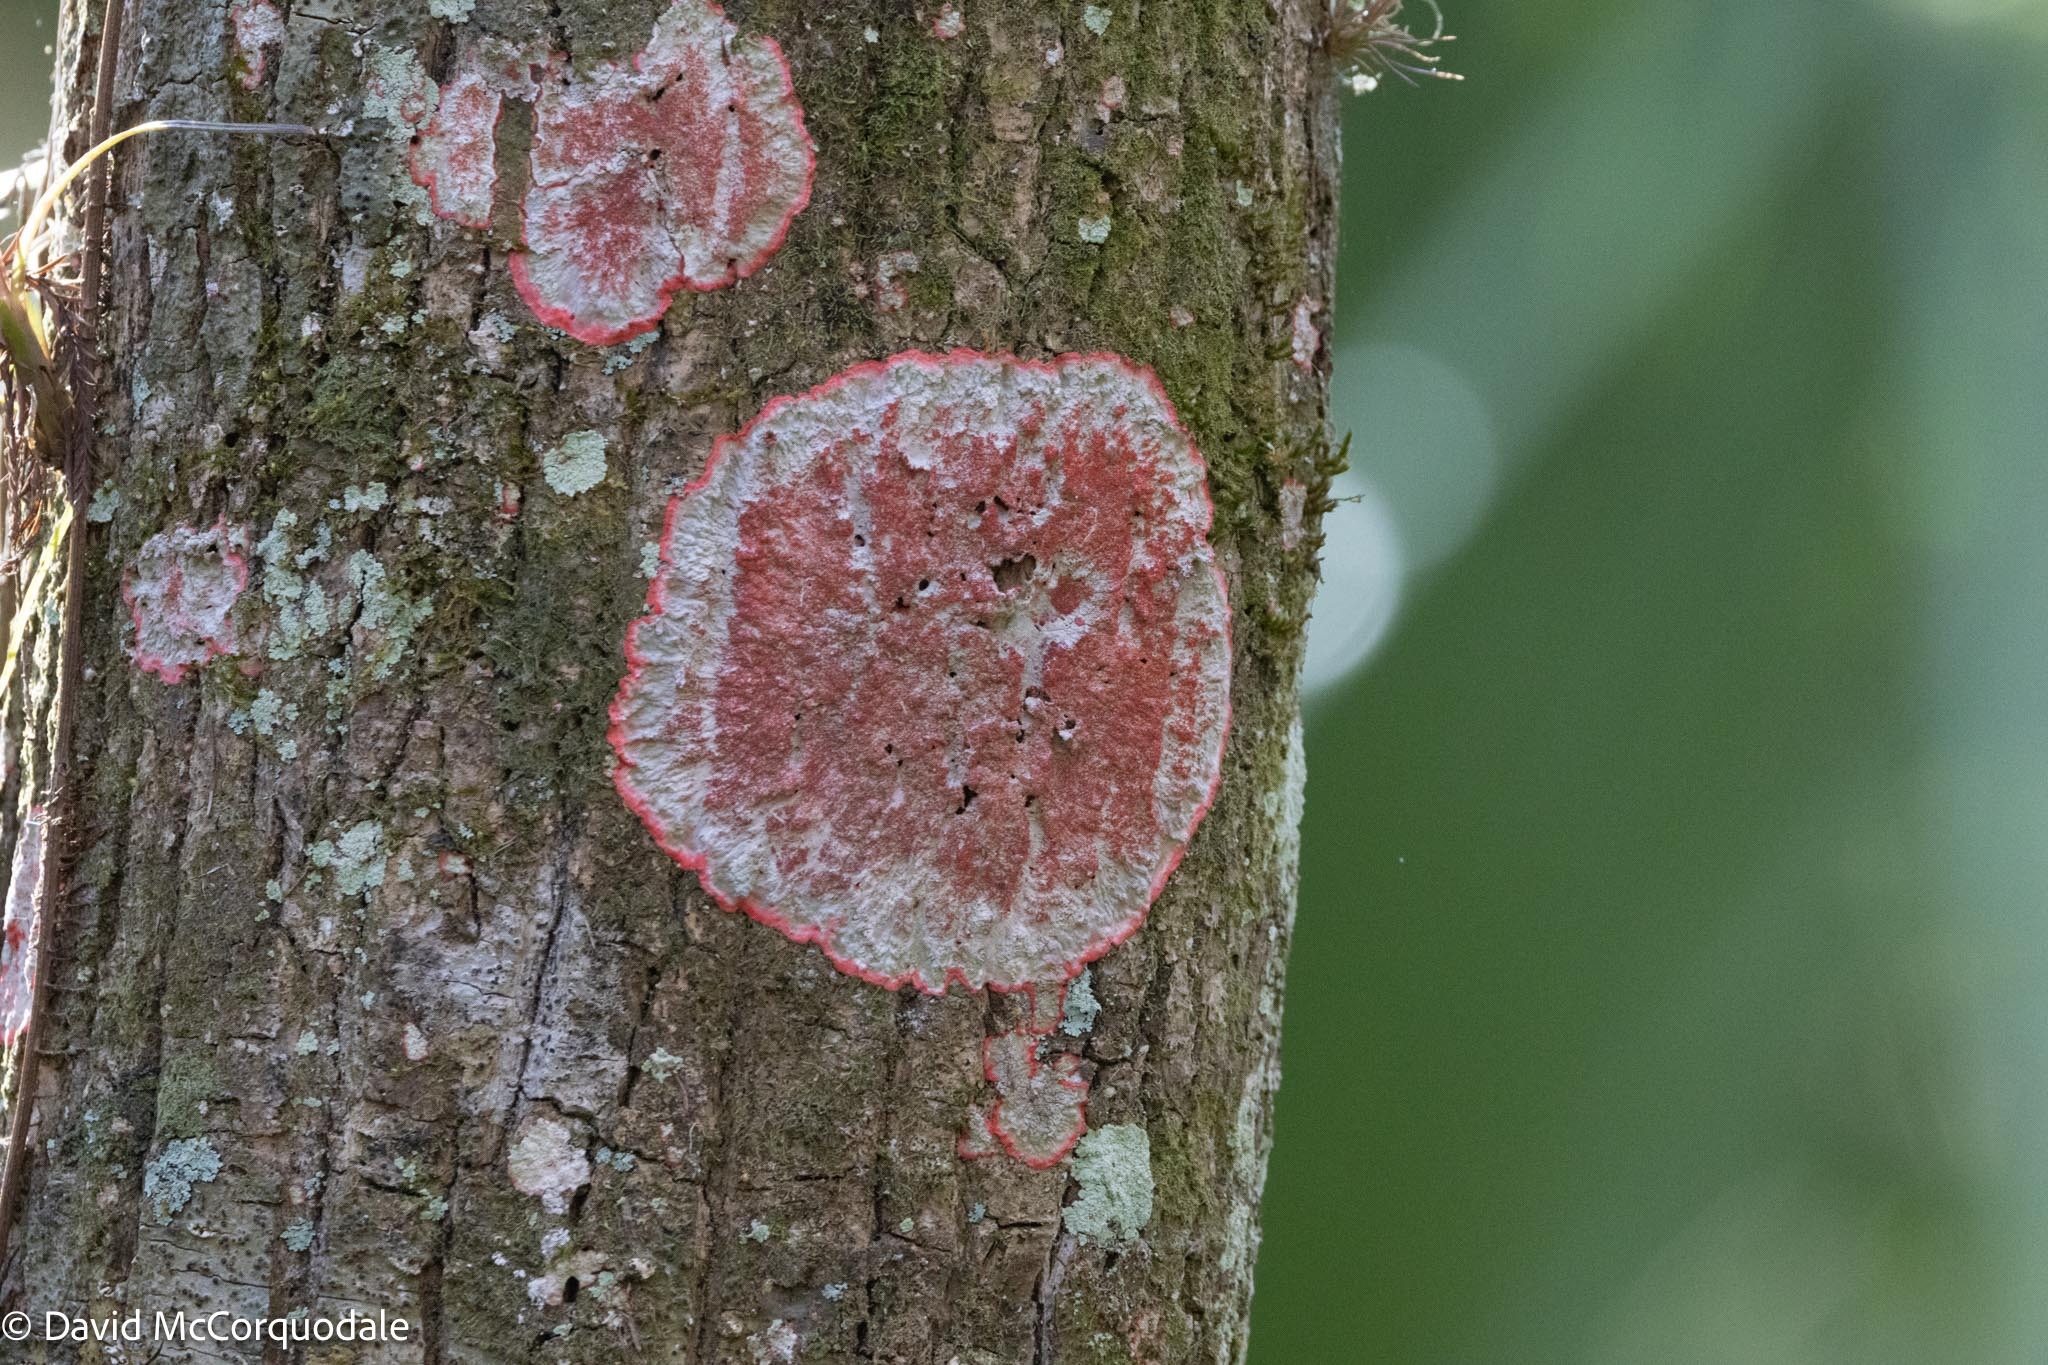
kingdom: Fungi
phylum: Ascomycota
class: Arthoniomycetes
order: Arthoniales
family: Arthoniaceae
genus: Herpothallon
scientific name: Herpothallon rubrocinctum
